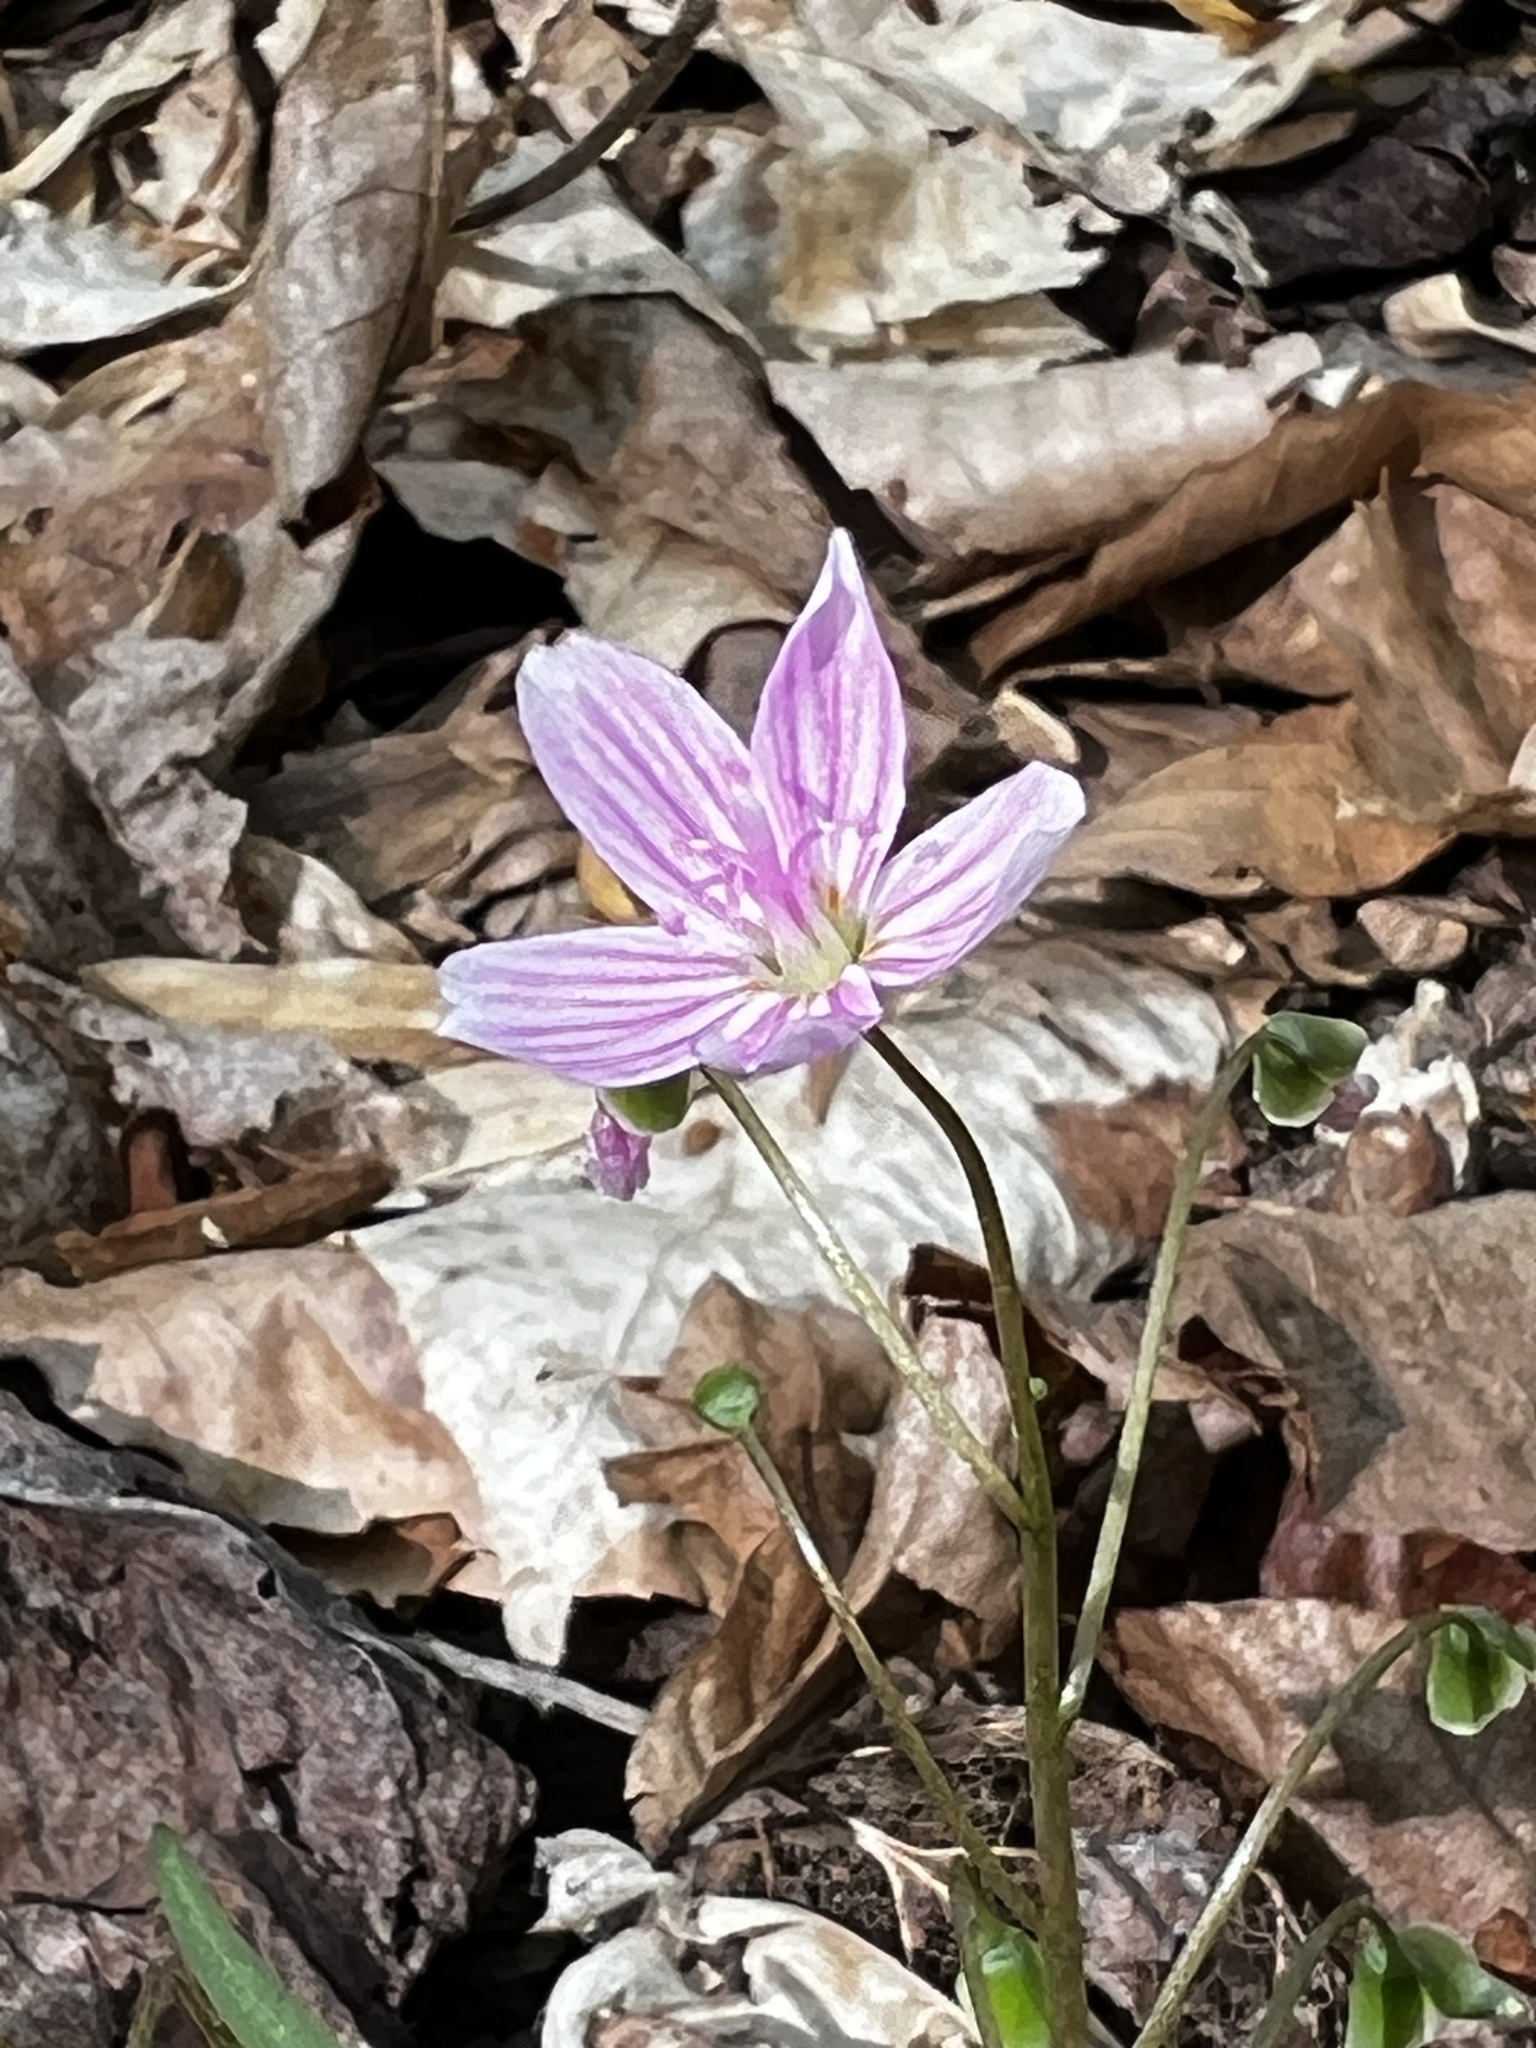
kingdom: Plantae
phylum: Tracheophyta
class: Magnoliopsida
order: Caryophyllales
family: Montiaceae
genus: Claytonia
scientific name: Claytonia virginica
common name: Virginia springbeauty
